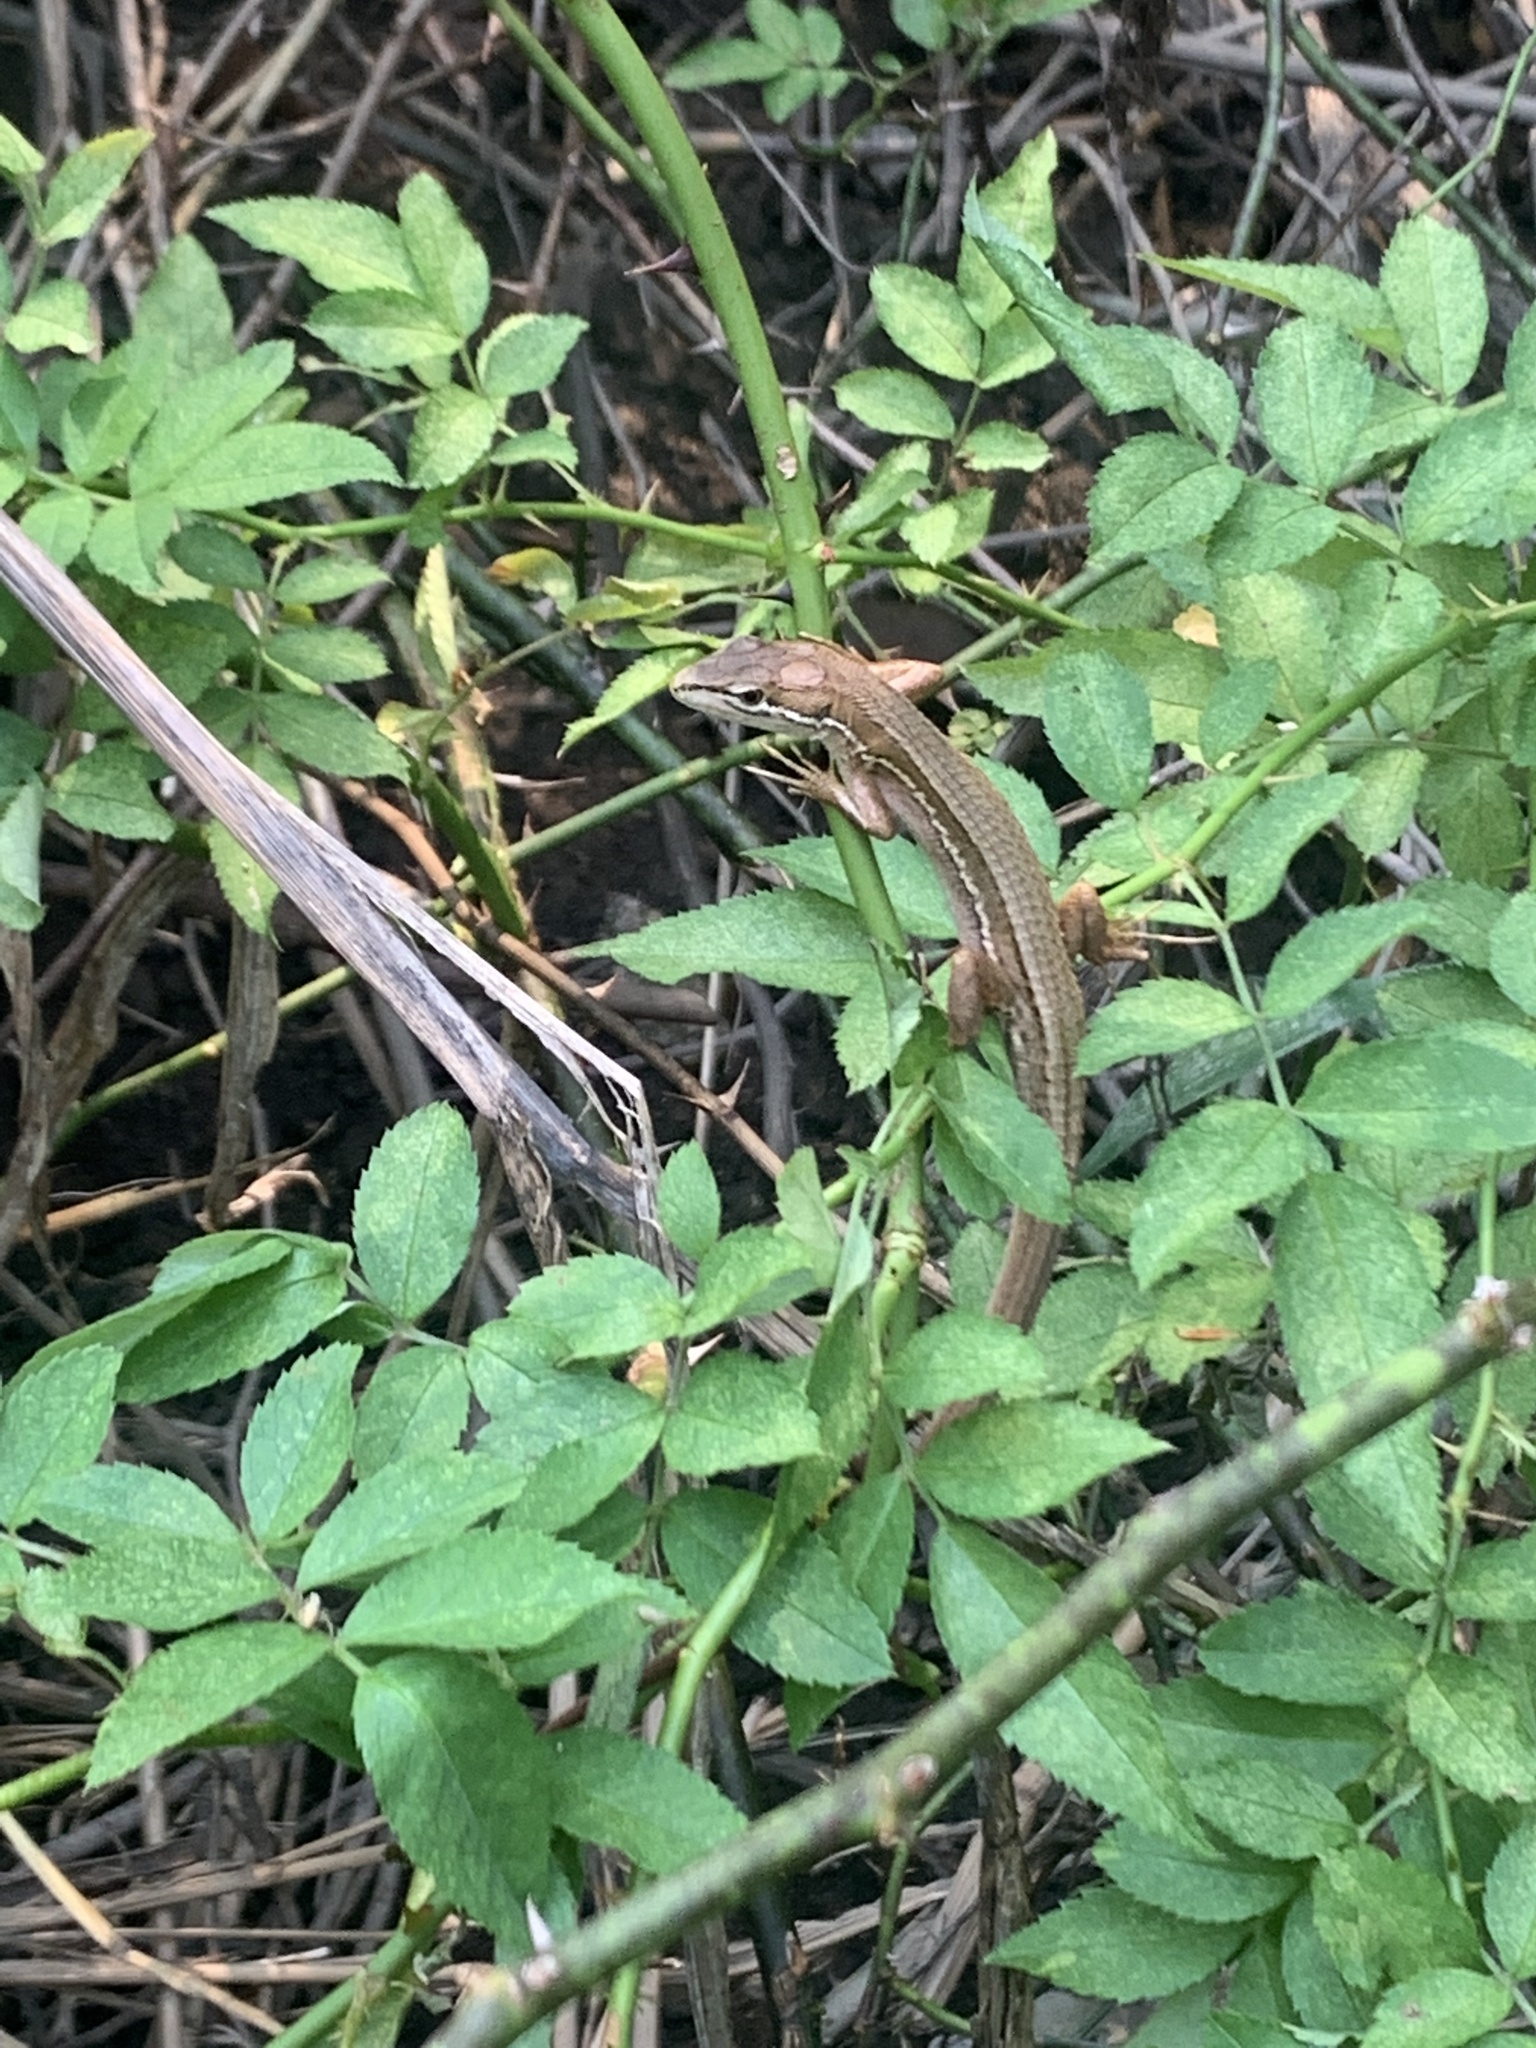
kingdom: Animalia
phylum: Chordata
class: Squamata
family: Lacertidae
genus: Takydromus
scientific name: Takydromus tachydromoides
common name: Japanese grass lizard
